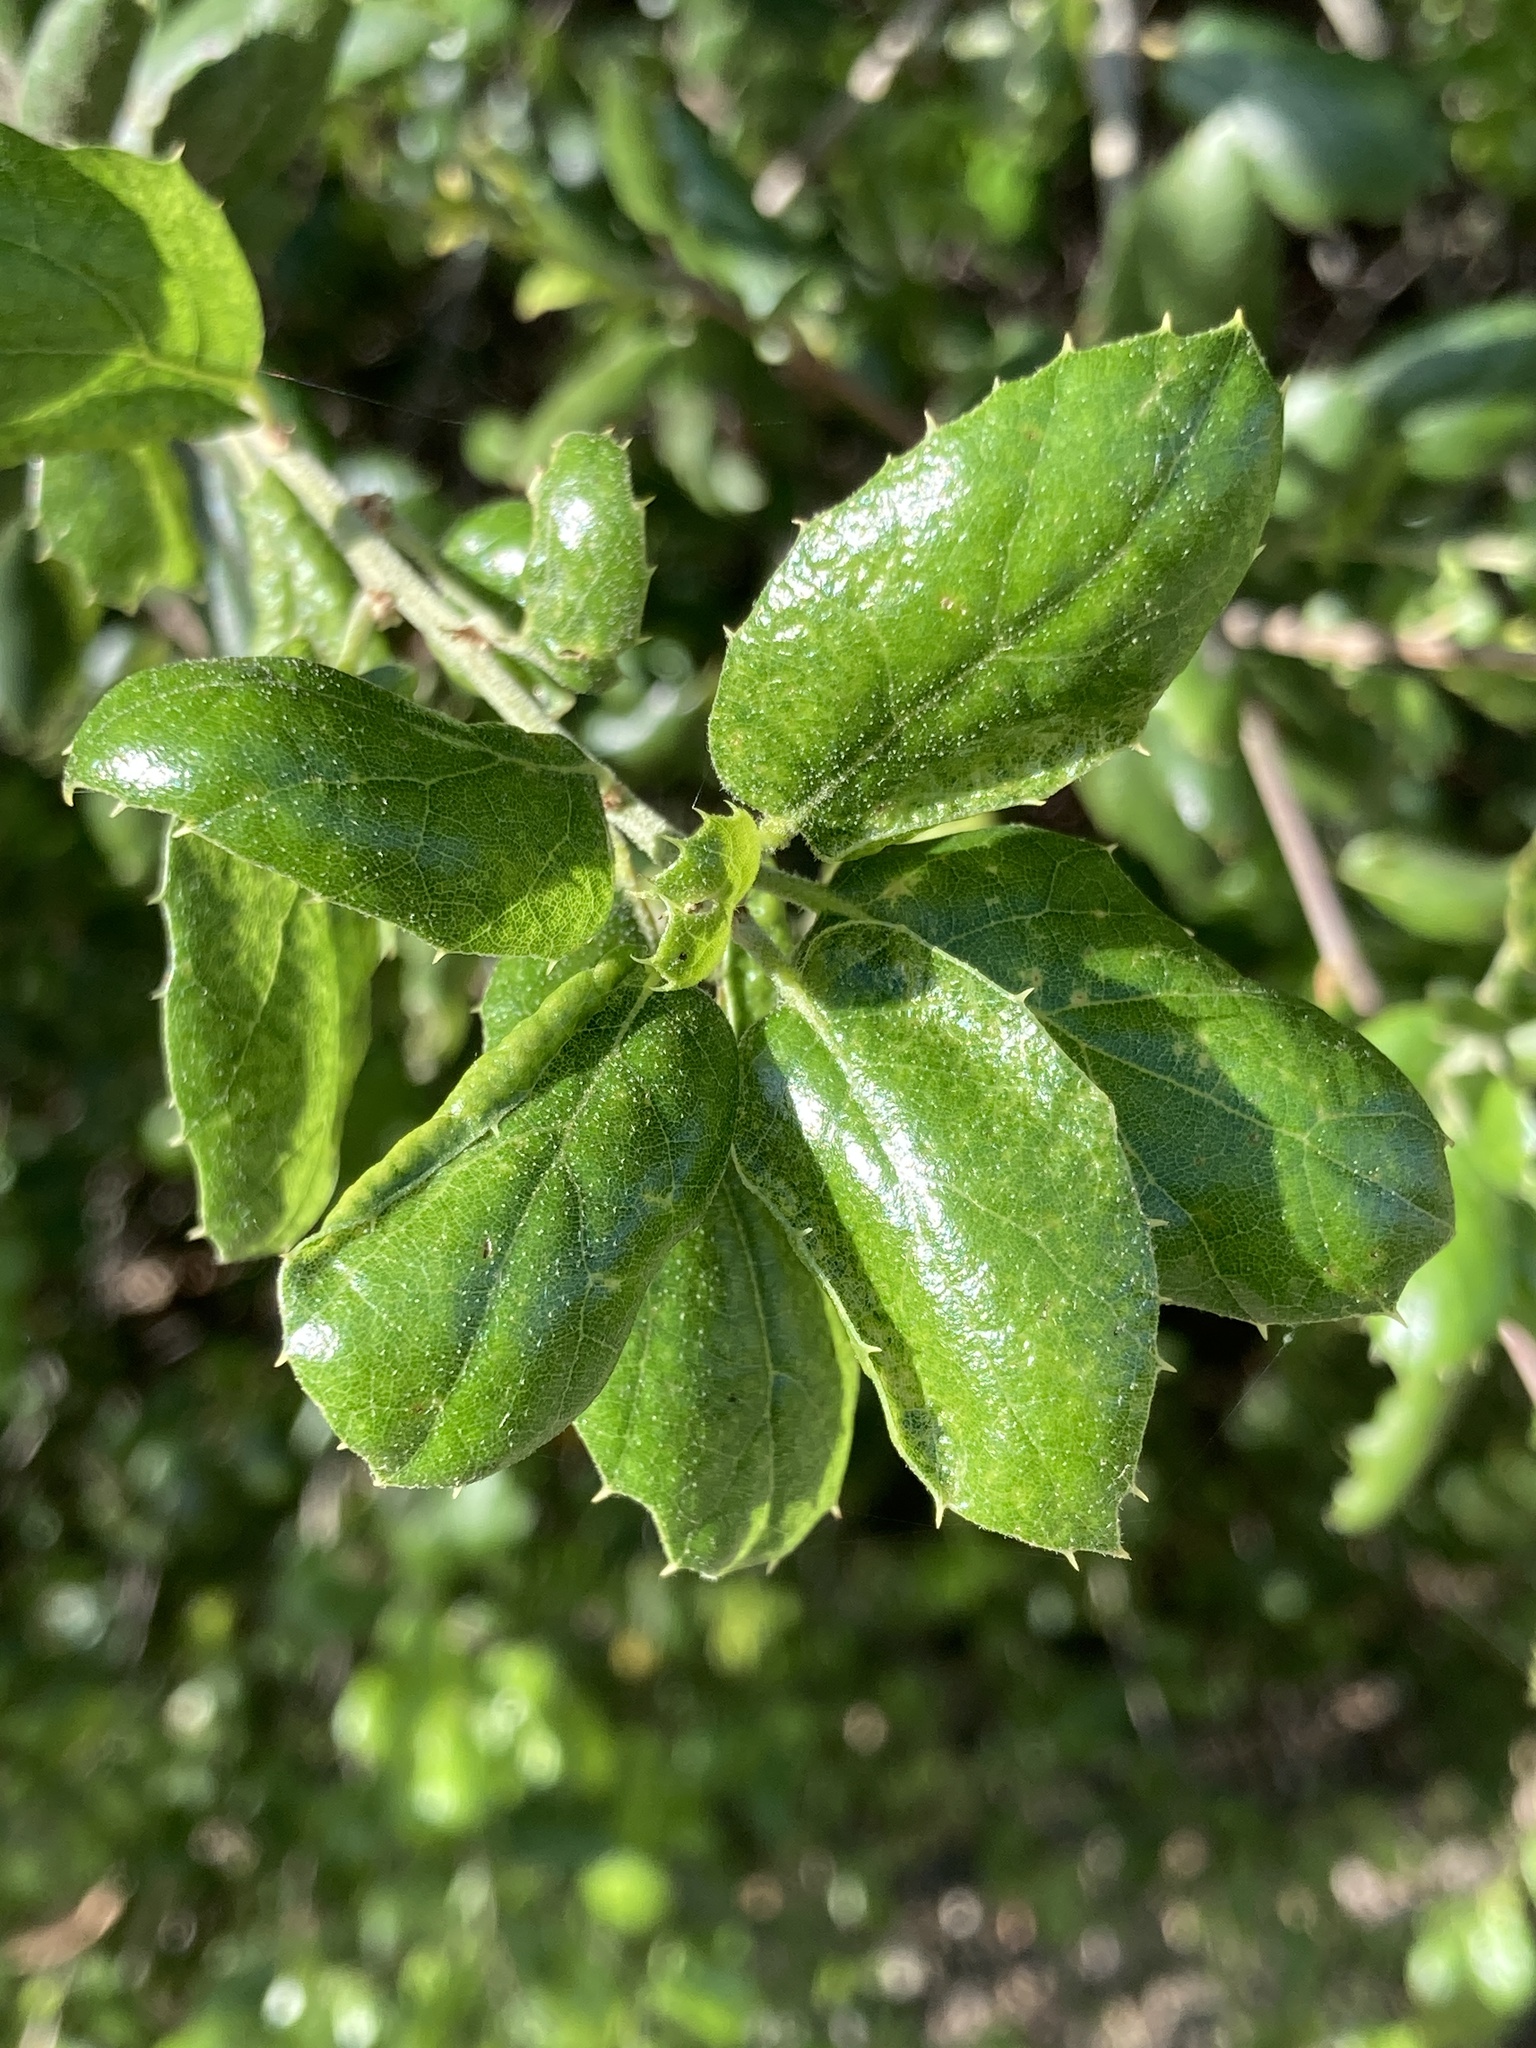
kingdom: Plantae
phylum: Tracheophyta
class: Magnoliopsida
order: Fagales
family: Fagaceae
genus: Quercus
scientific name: Quercus agrifolia
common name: California live oak
